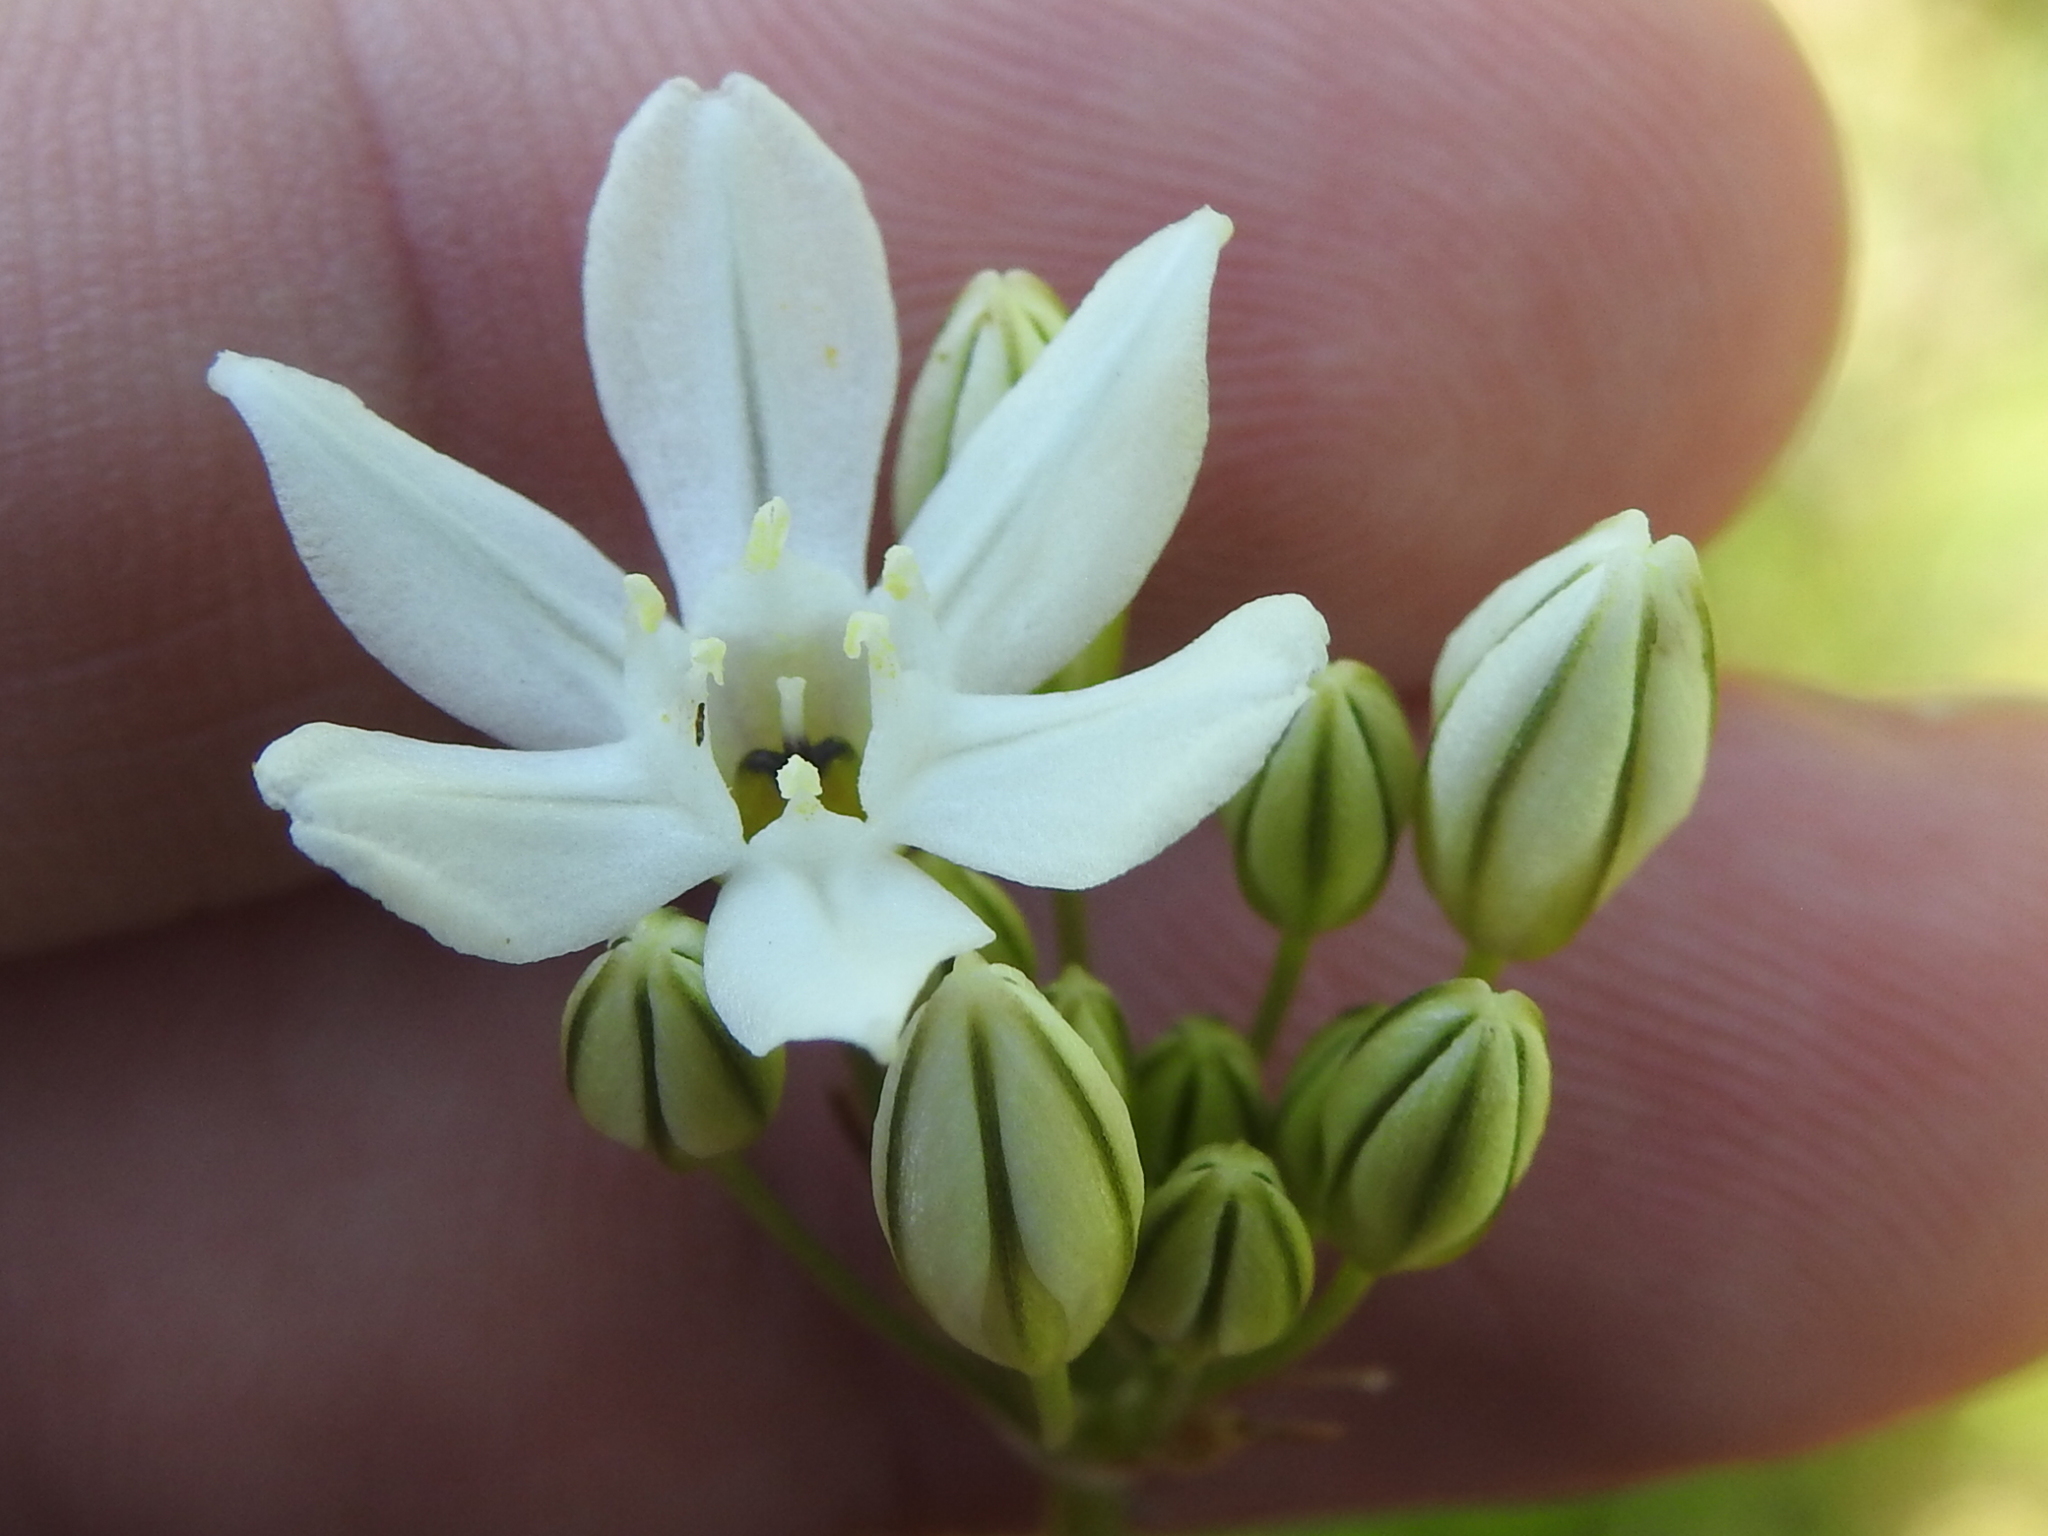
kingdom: Plantae
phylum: Tracheophyta
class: Liliopsida
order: Asparagales
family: Asparagaceae
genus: Triteleia
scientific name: Triteleia hyacinthina
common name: White brodiaea
